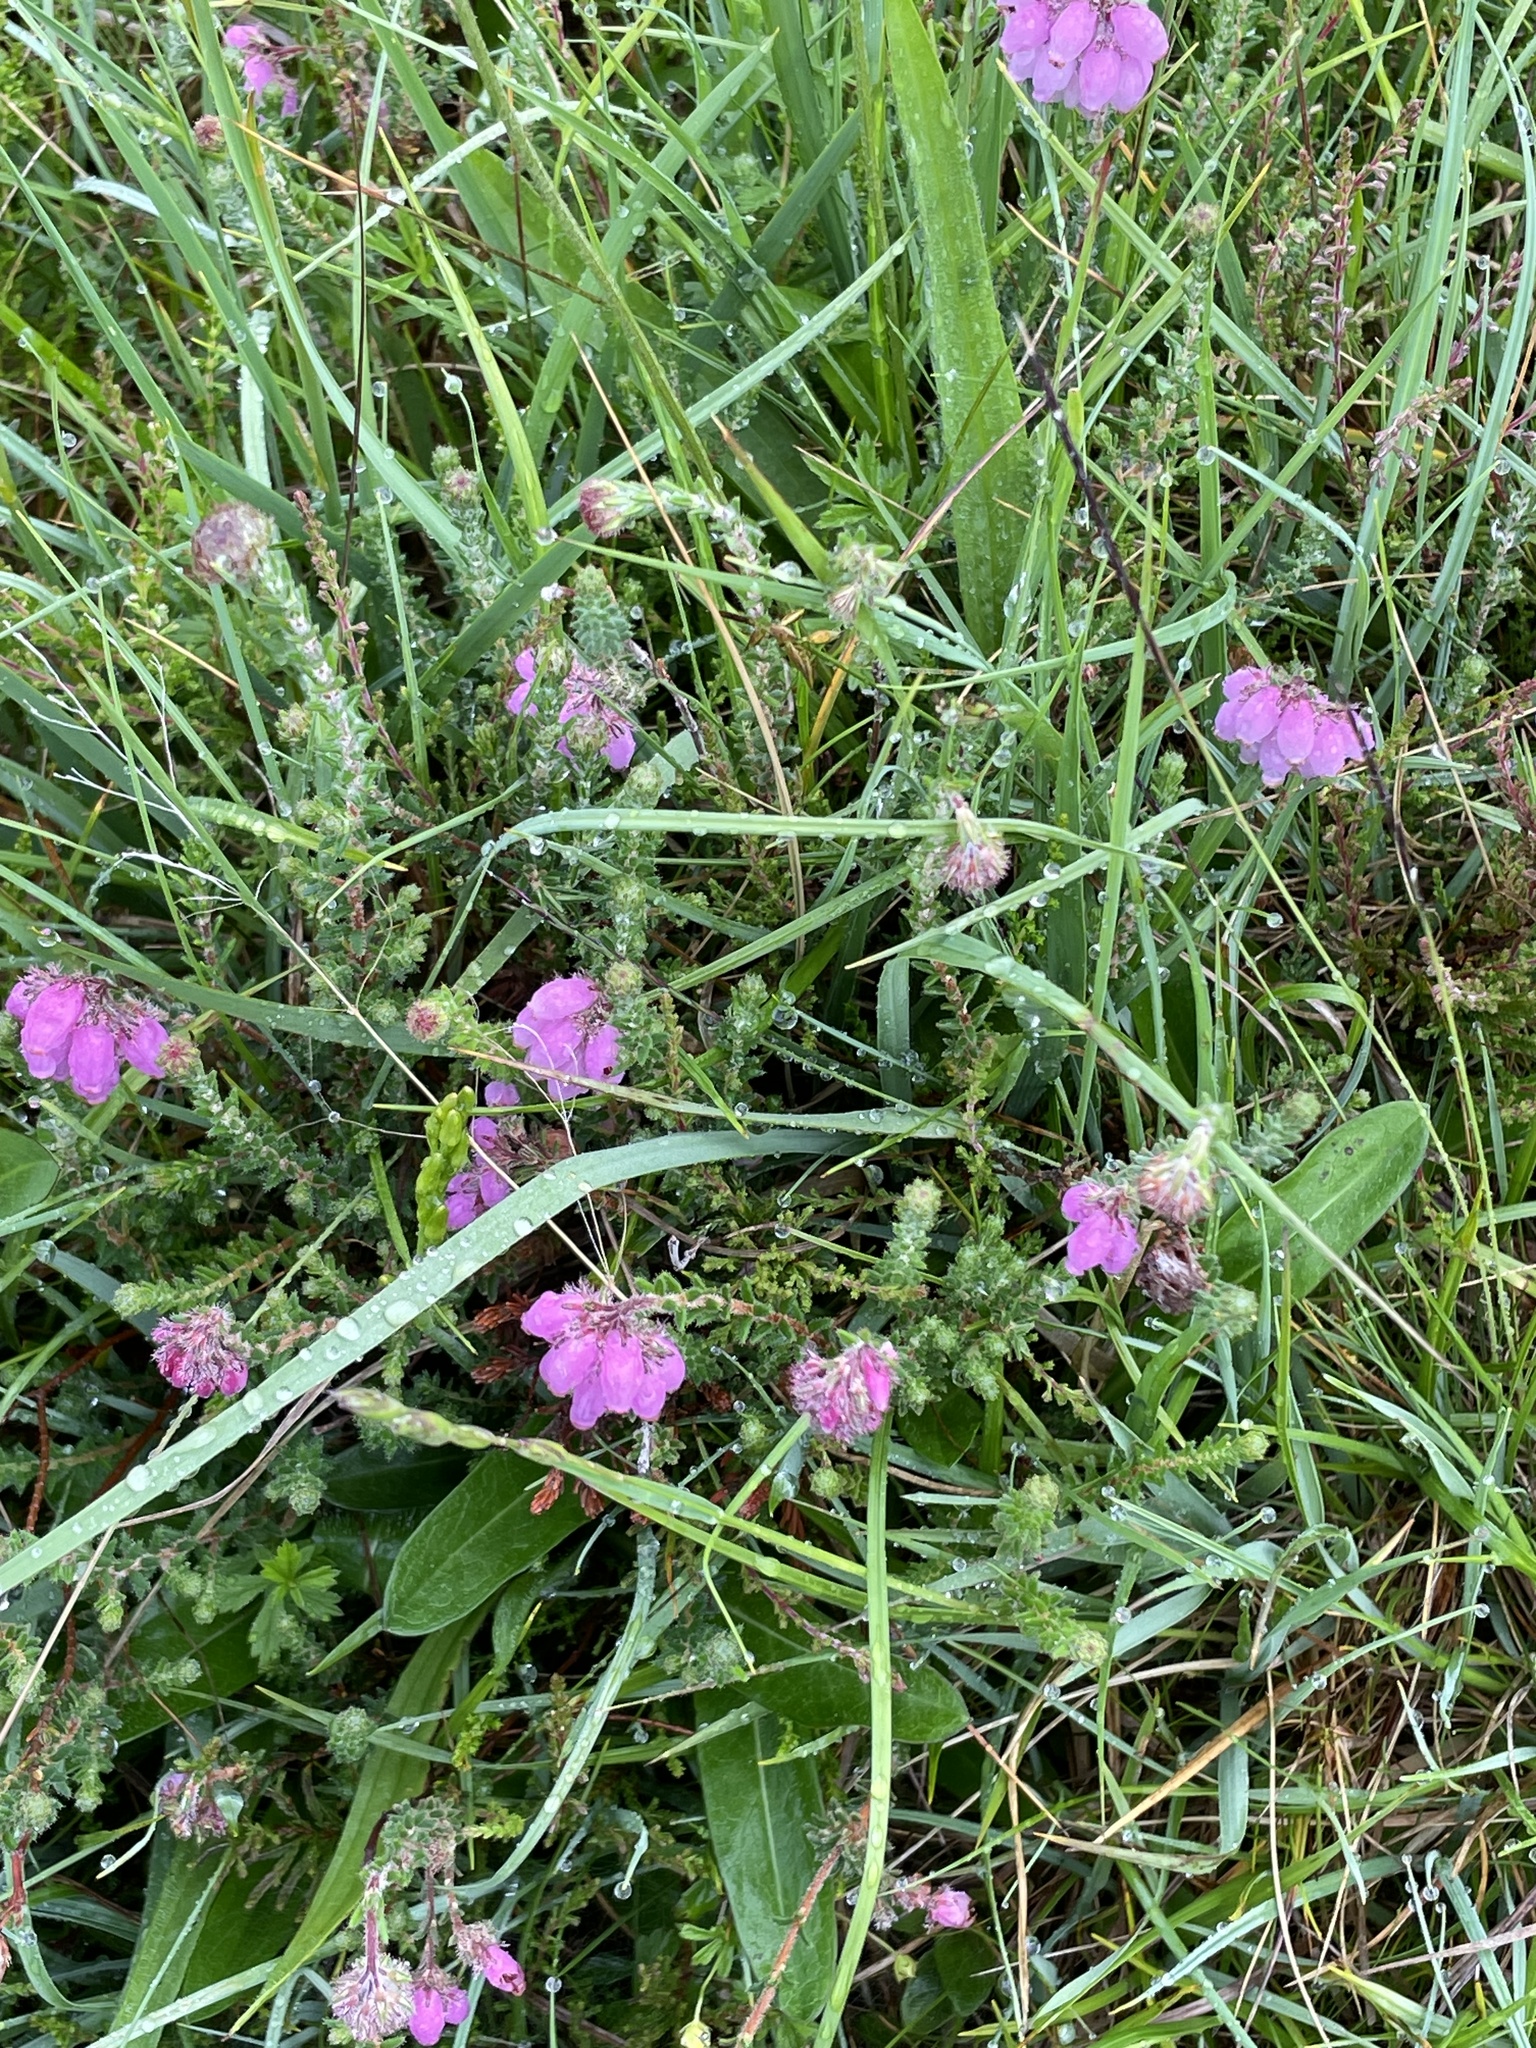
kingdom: Plantae
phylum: Tracheophyta
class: Magnoliopsida
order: Ericales
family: Ericaceae
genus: Erica
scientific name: Erica tetralix
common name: Cross-leaved heath
